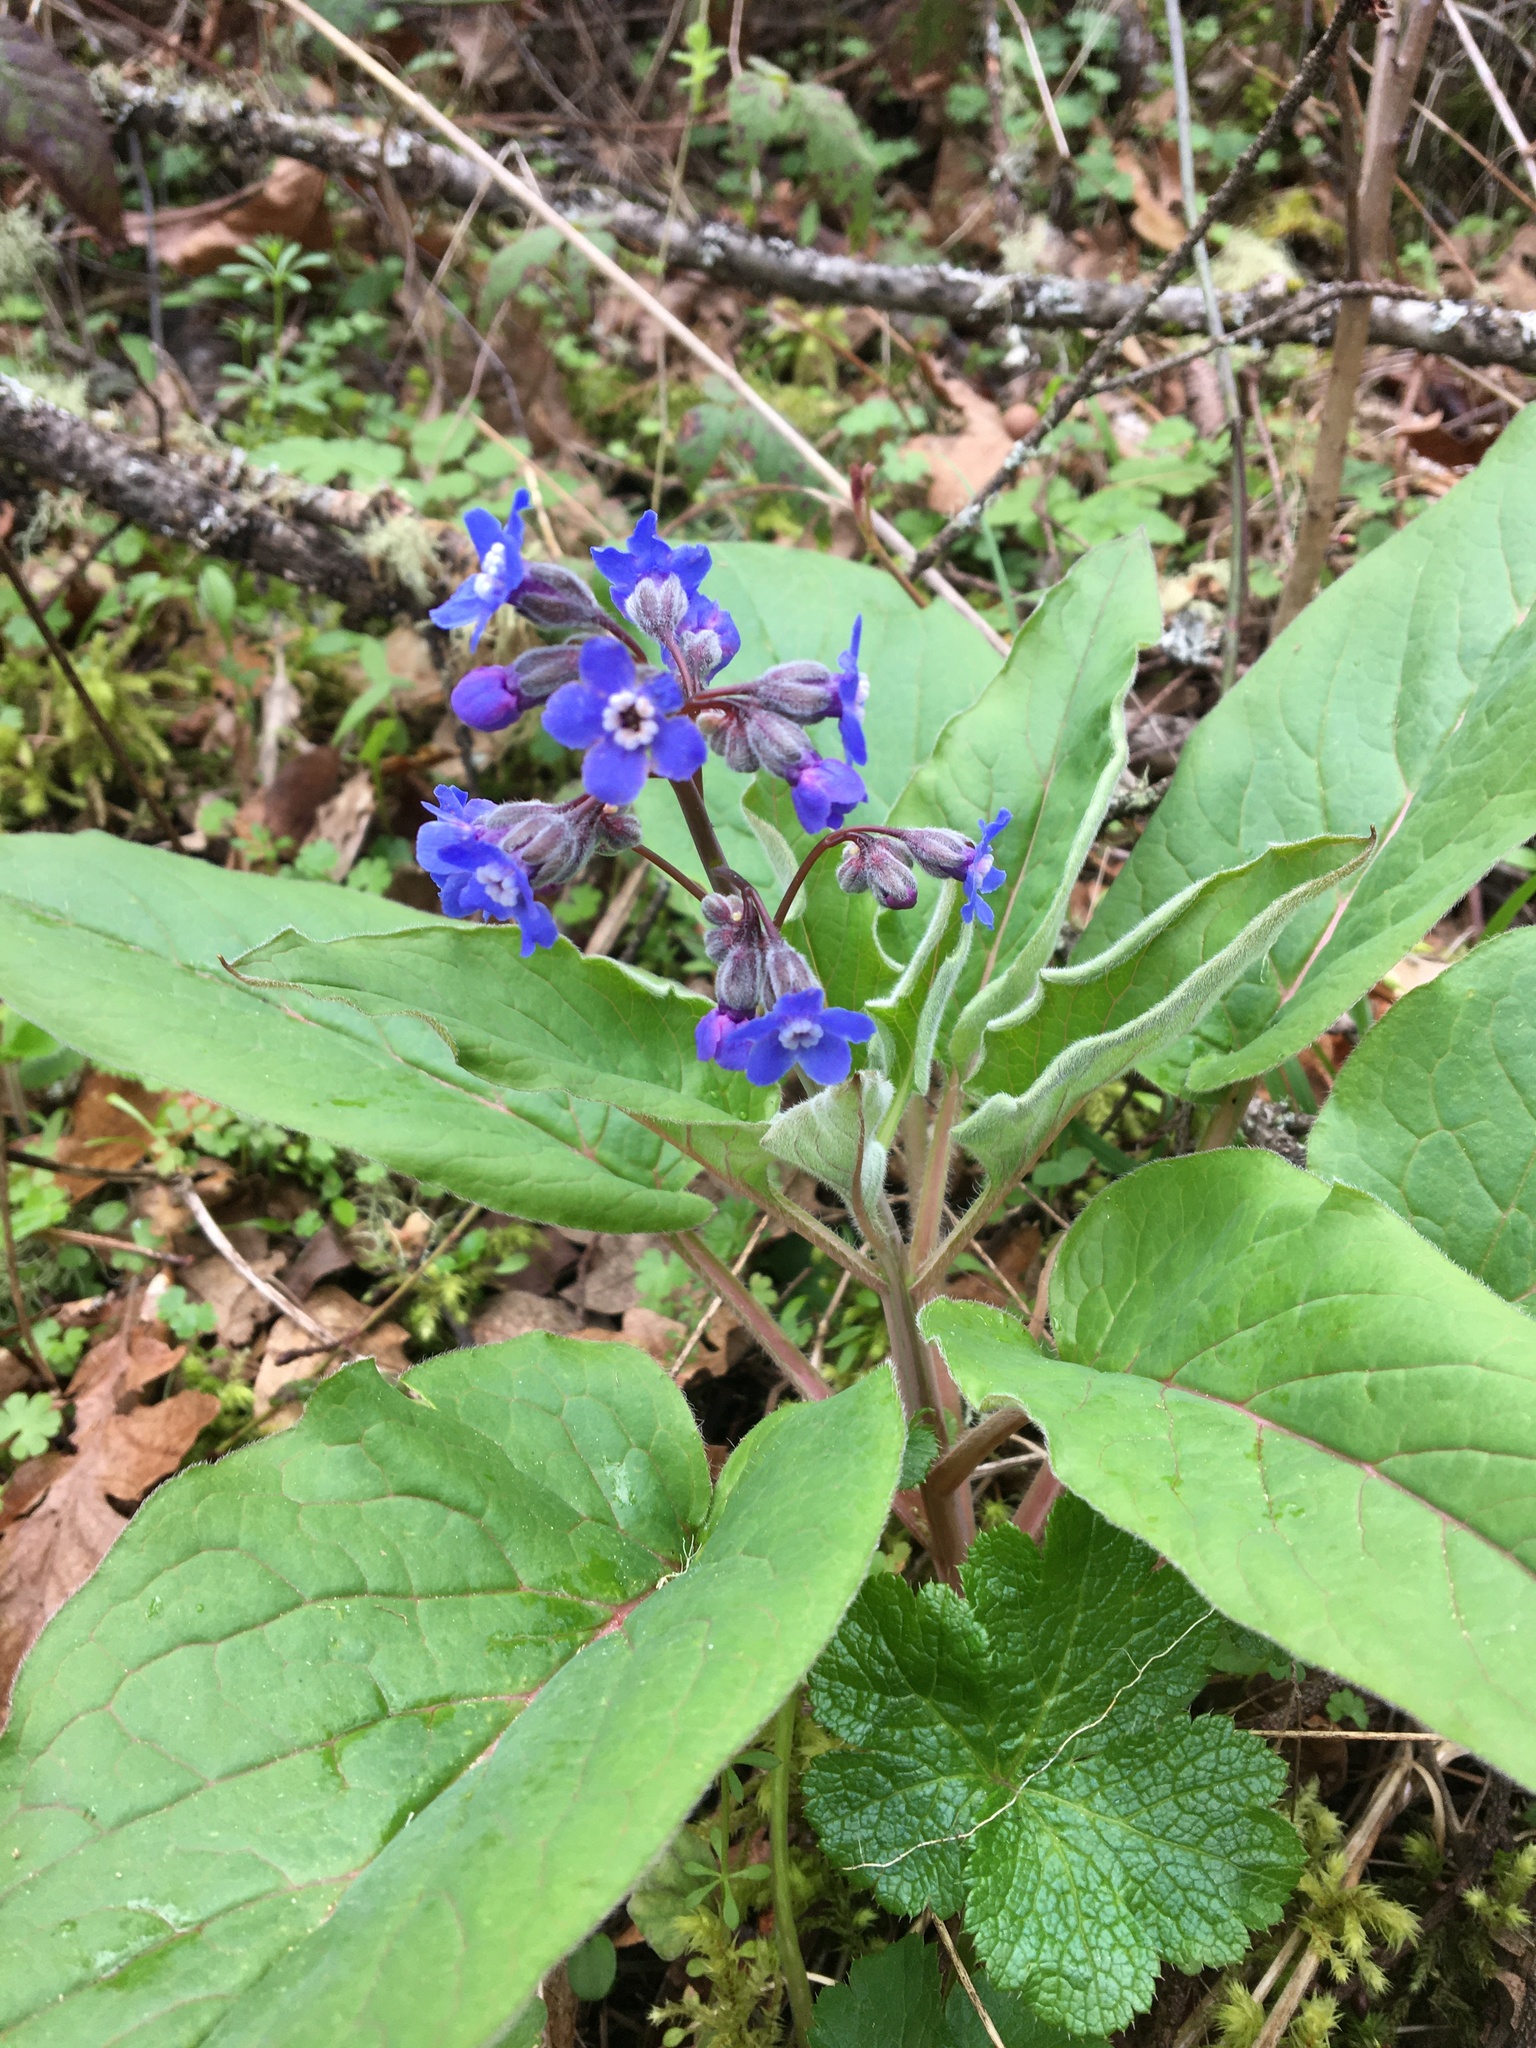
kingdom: Plantae
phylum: Tracheophyta
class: Magnoliopsida
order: Boraginales
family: Boraginaceae
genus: Adelinia
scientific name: Adelinia grande
